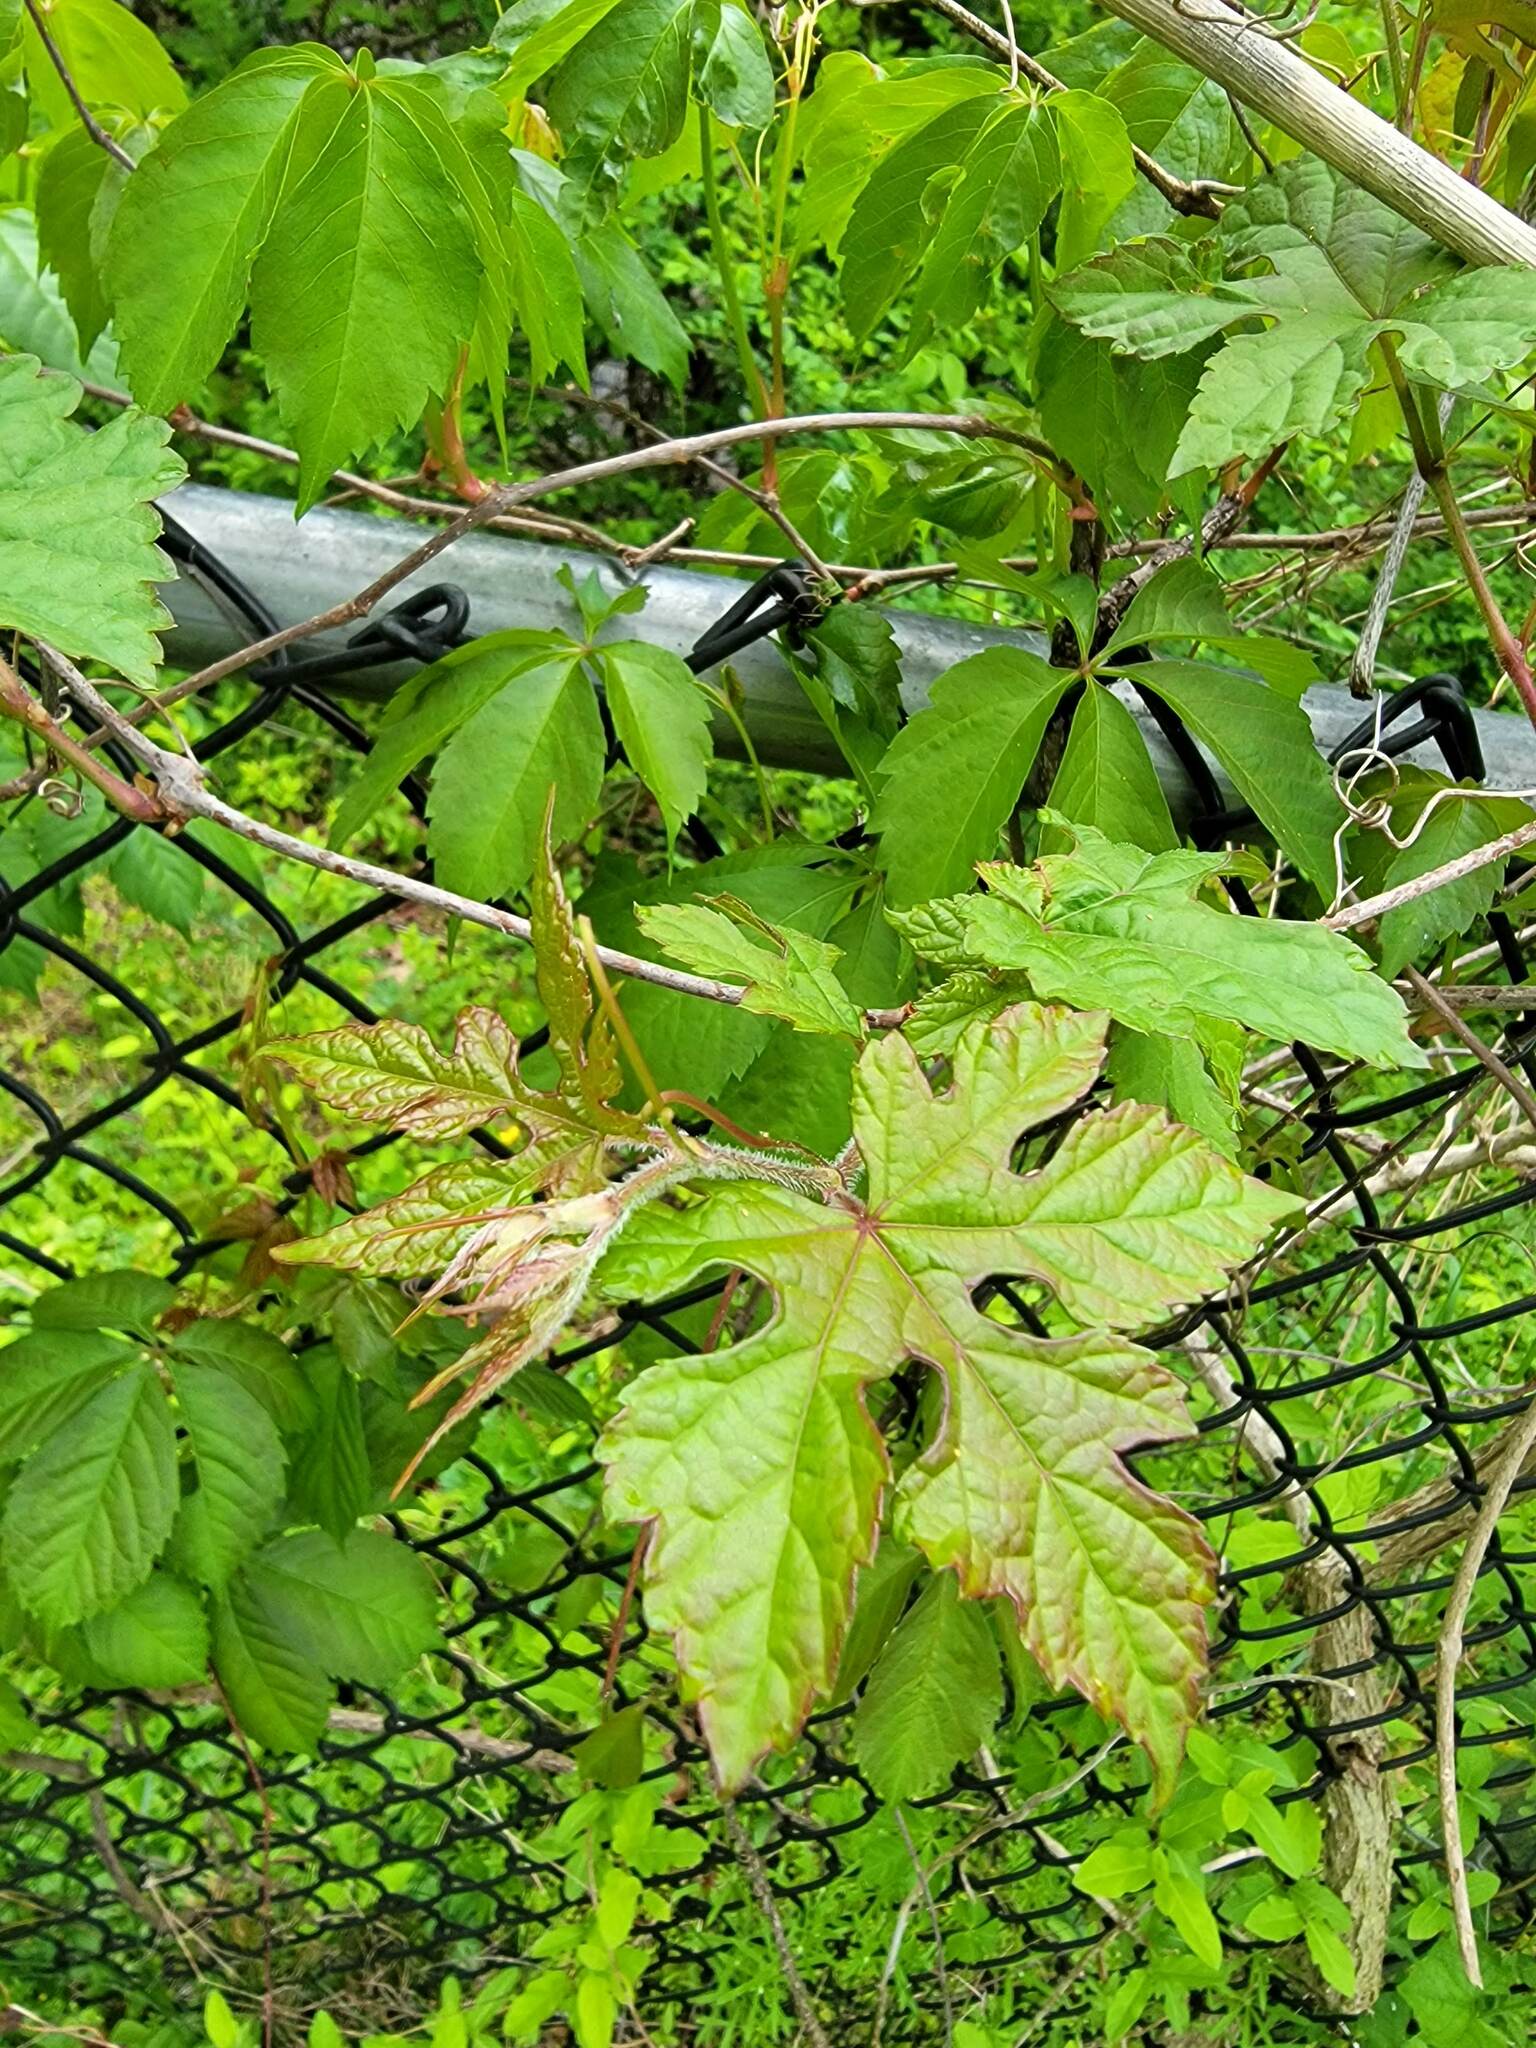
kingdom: Plantae
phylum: Tracheophyta
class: Magnoliopsida
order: Vitales
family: Vitaceae
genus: Ampelopsis
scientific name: Ampelopsis glandulosa
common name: Amur peppervine
